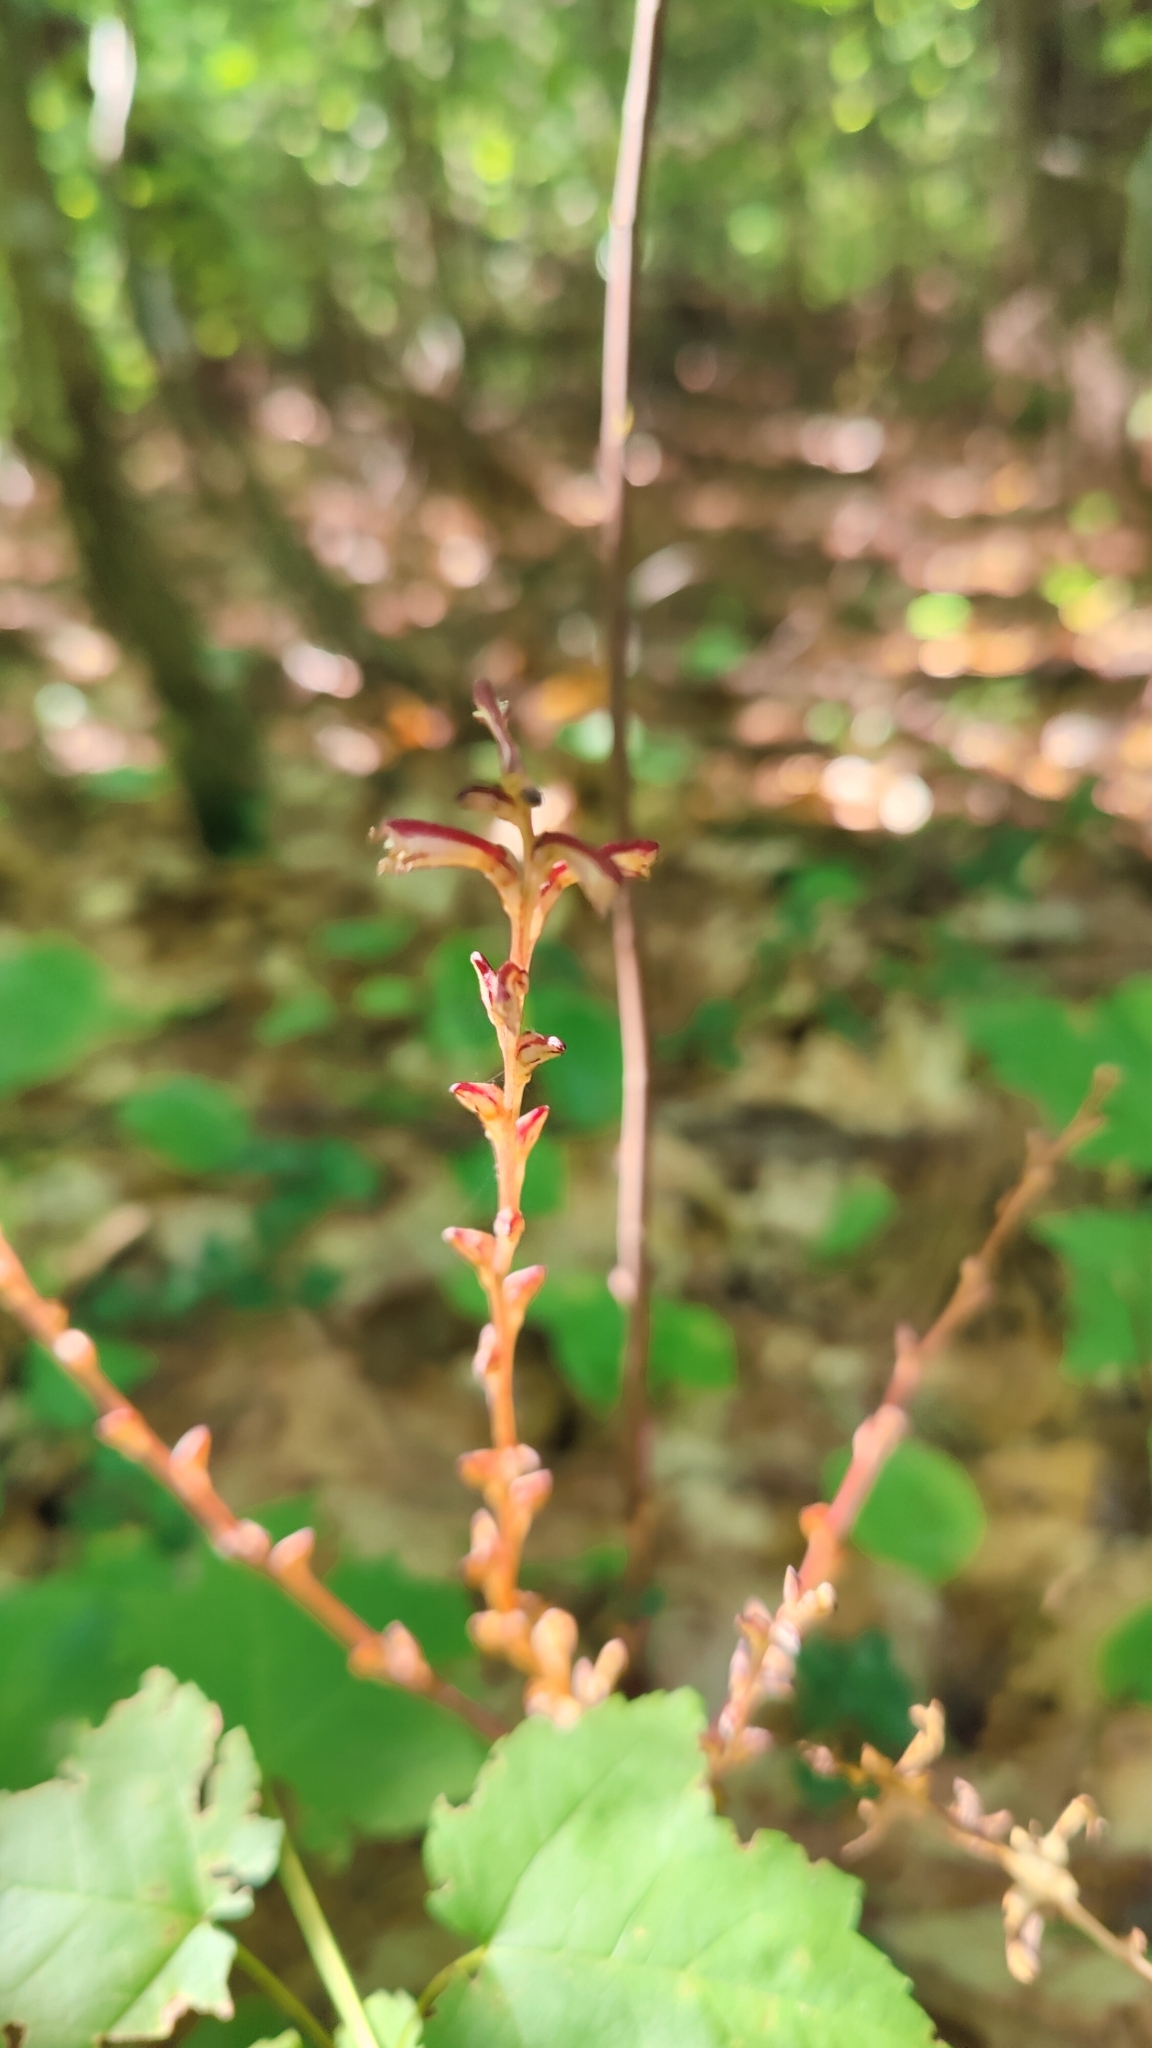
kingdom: Plantae
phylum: Tracheophyta
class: Magnoliopsida
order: Lamiales
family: Orobanchaceae
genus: Epifagus
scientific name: Epifagus virginiana
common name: Beechdrops
